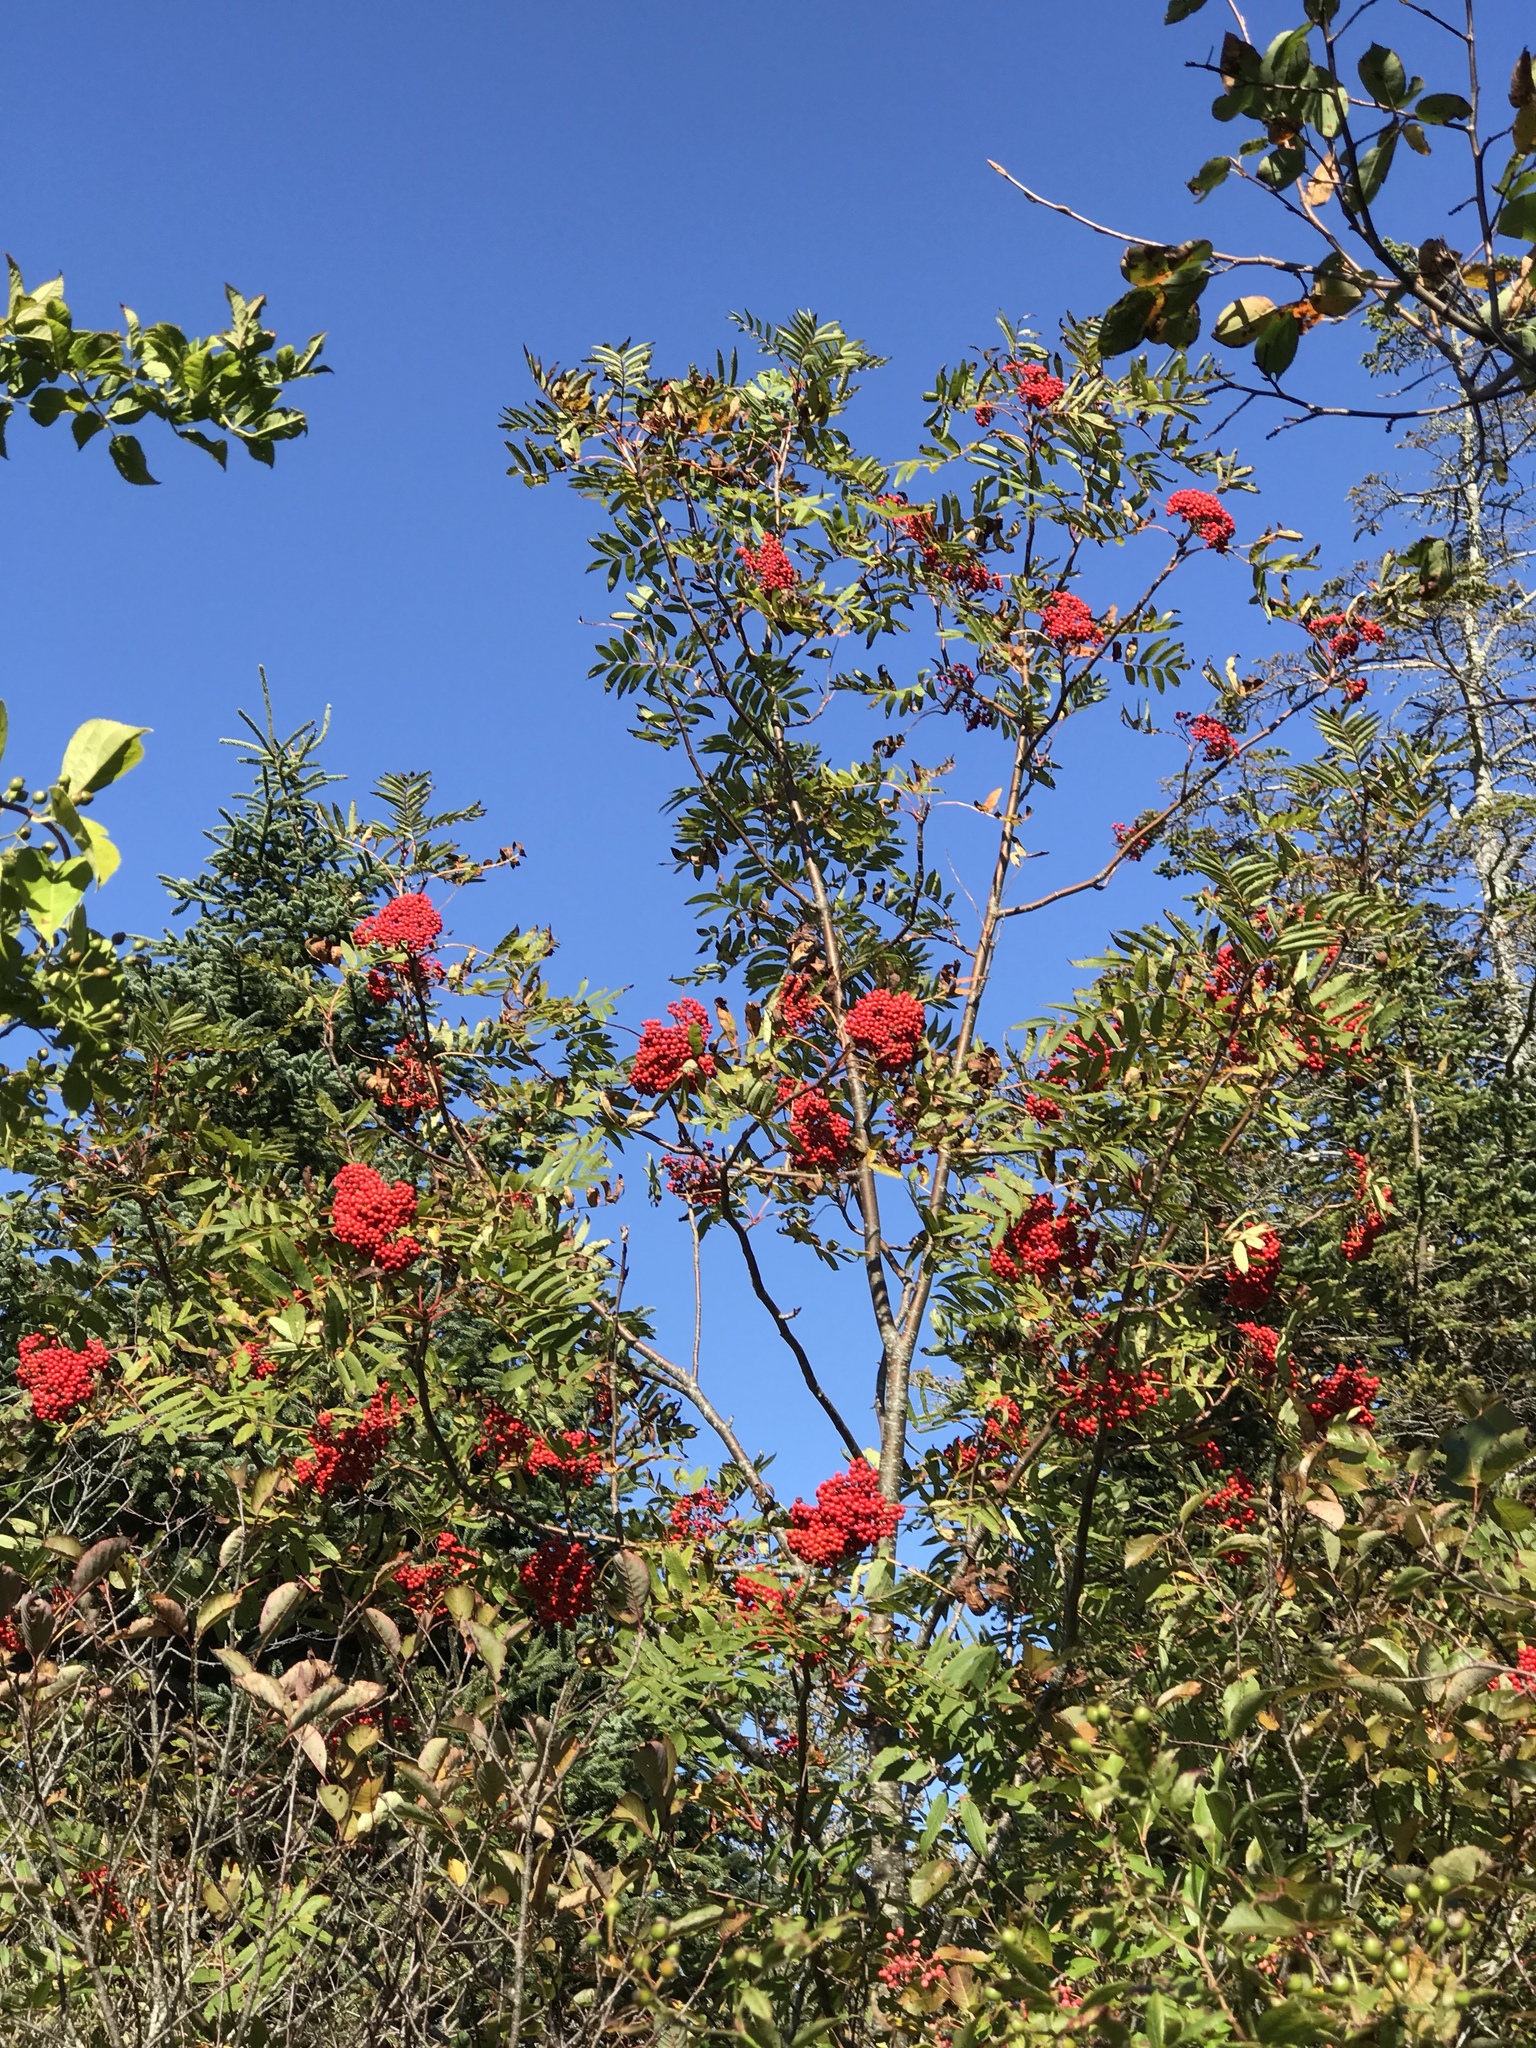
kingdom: Plantae
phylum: Tracheophyta
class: Magnoliopsida
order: Rosales
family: Rosaceae
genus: Sorbus
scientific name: Sorbus americana
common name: American mountain-ash
